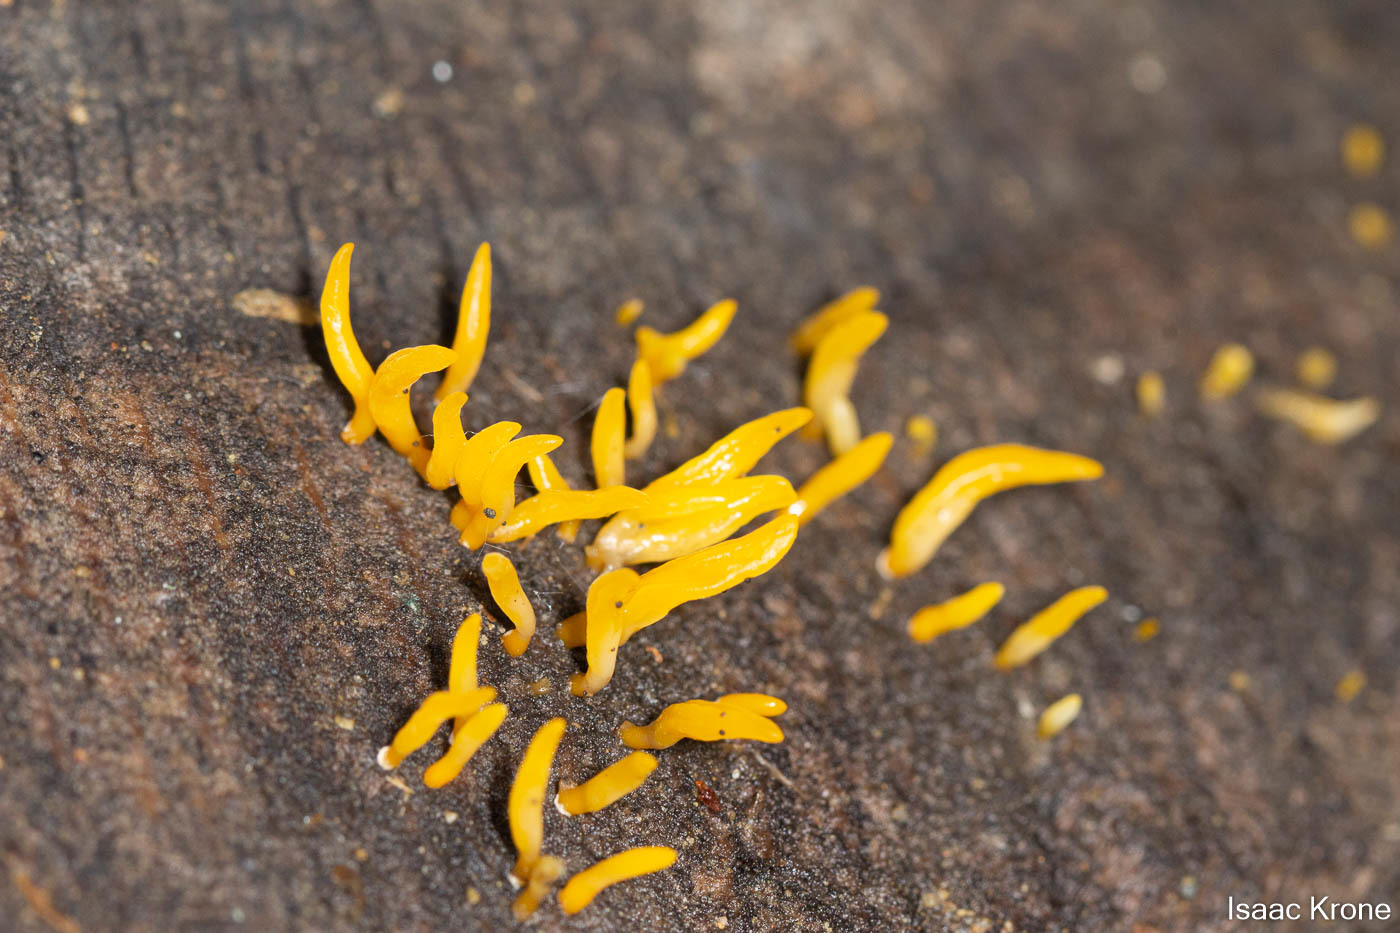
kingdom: Fungi
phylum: Basidiomycota
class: Dacrymycetes
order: Dacrymycetales
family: Dacrymycetaceae
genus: Calocera
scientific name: Calocera cornea
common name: Small stagshorn
